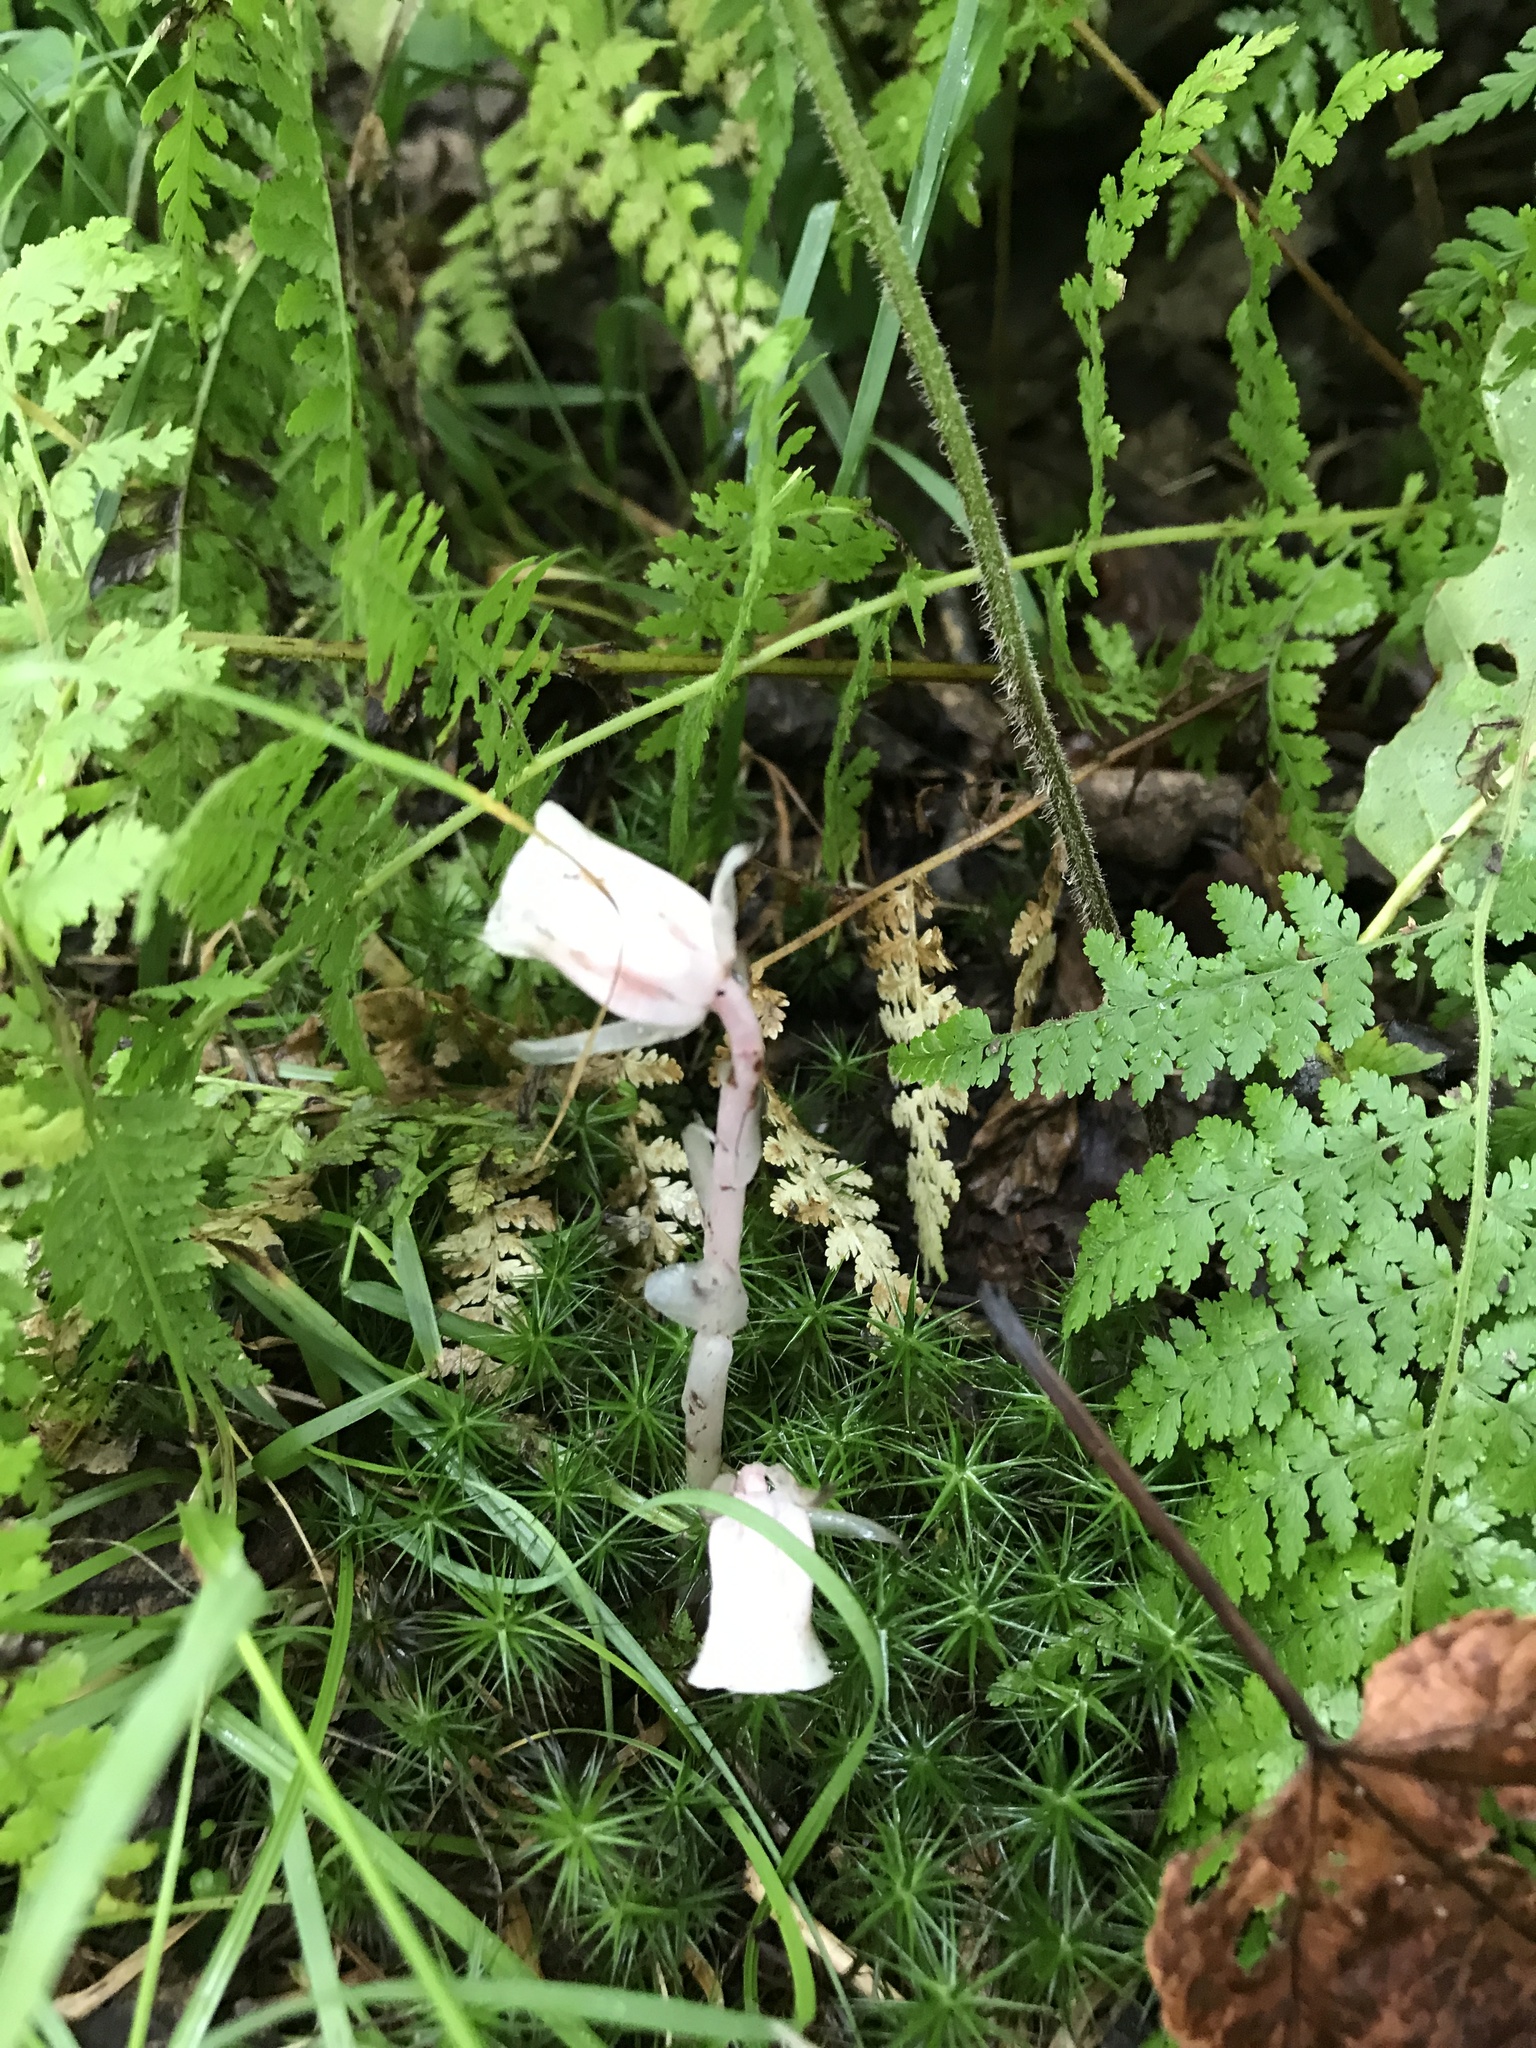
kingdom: Plantae
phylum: Tracheophyta
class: Magnoliopsida
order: Ericales
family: Ericaceae
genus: Monotropa
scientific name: Monotropa uniflora
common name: Convulsion root
